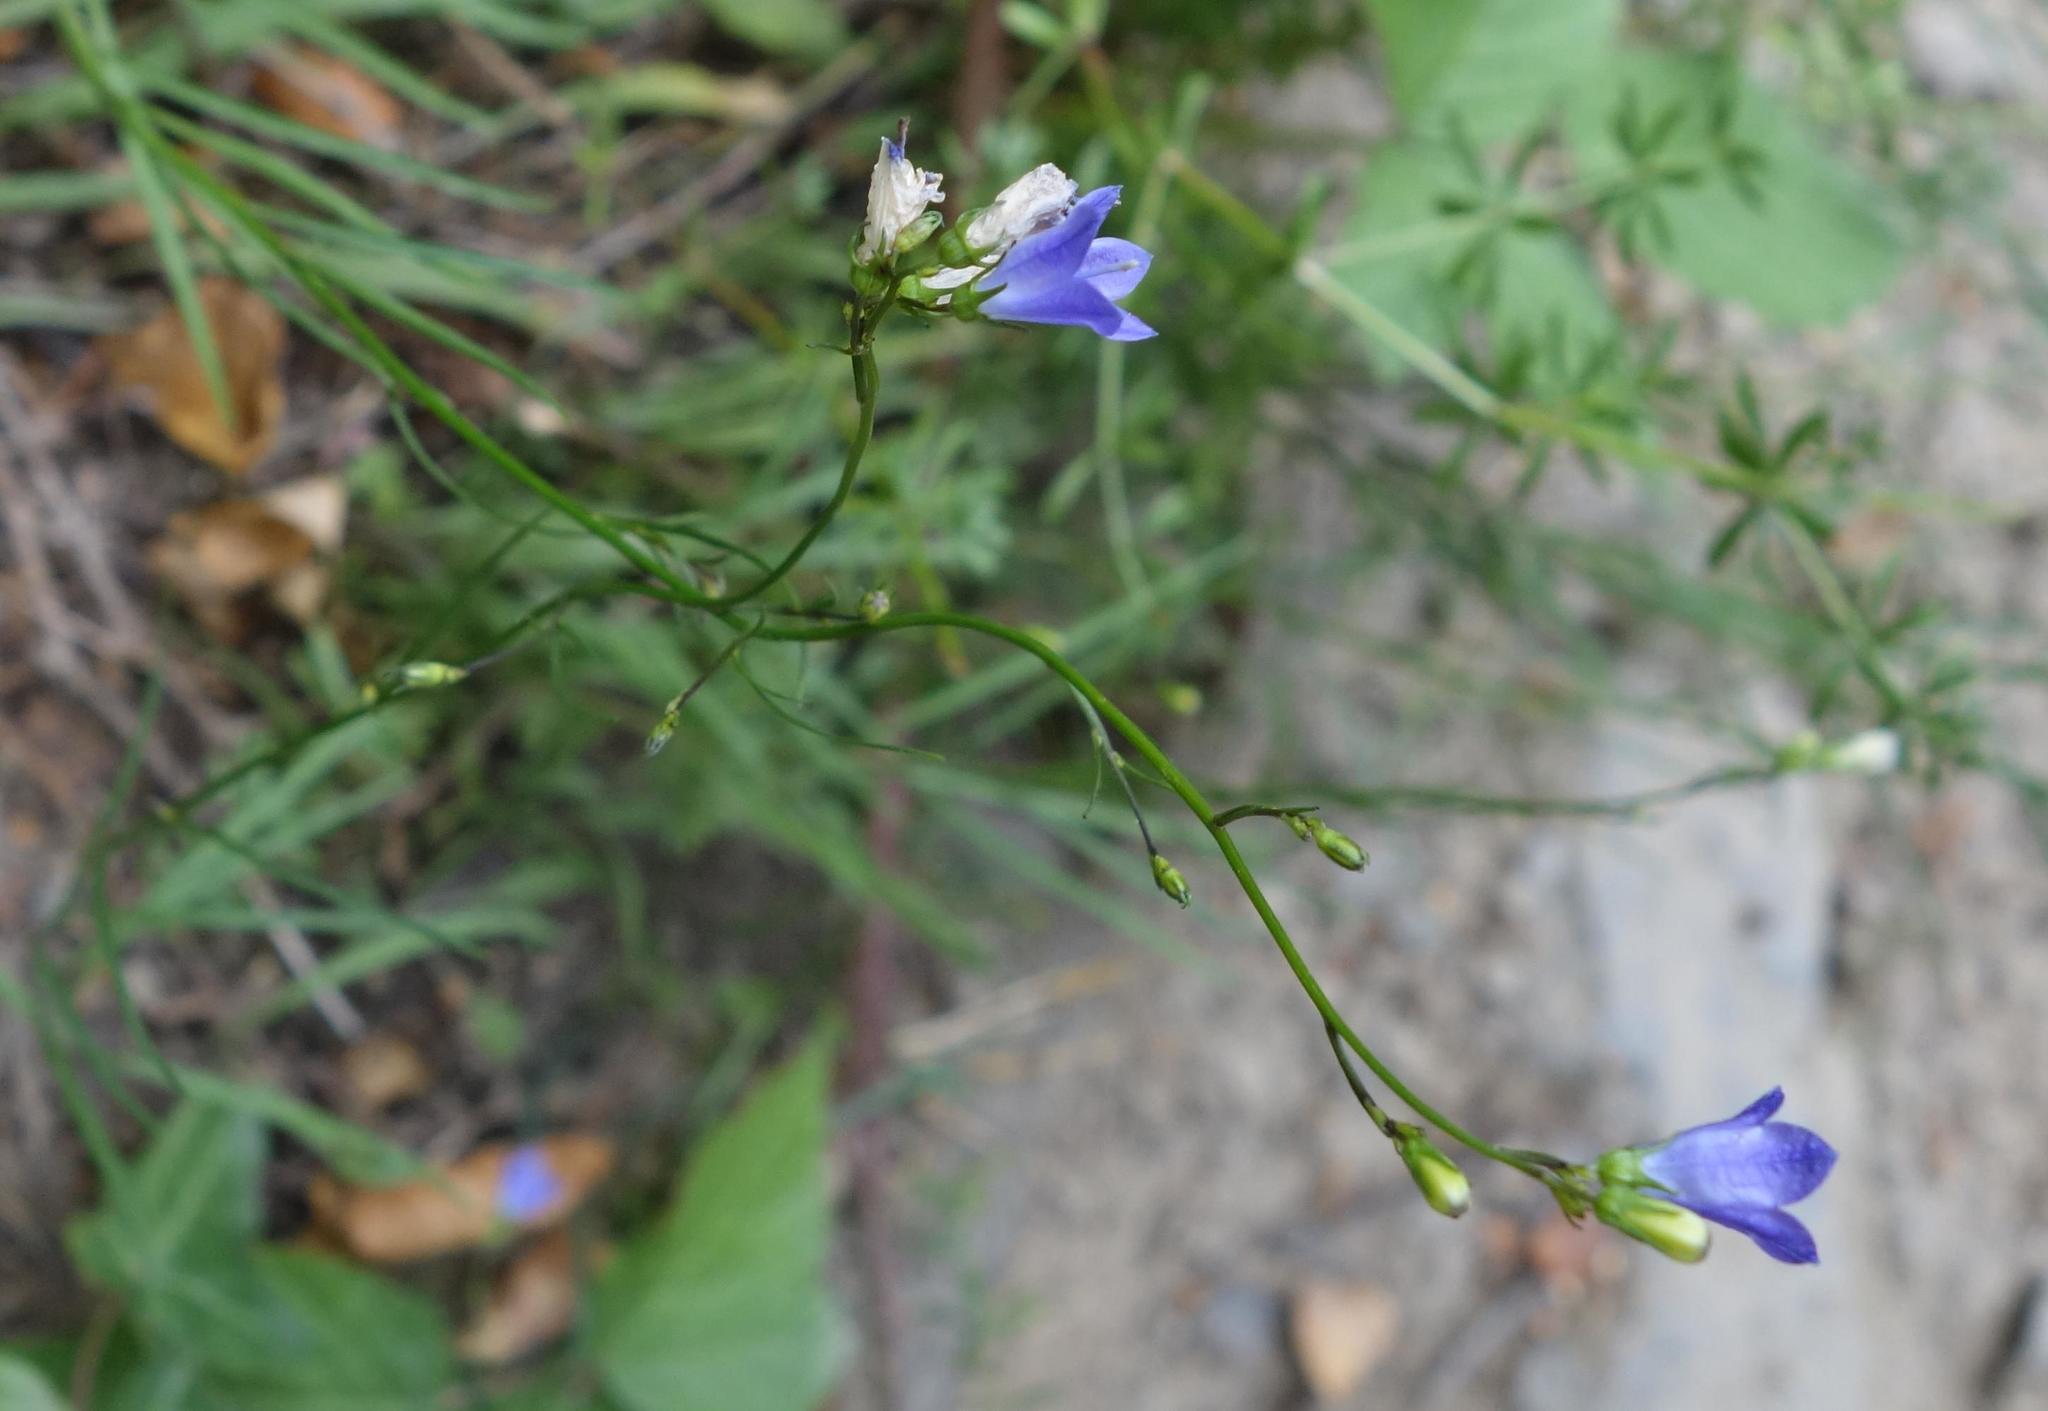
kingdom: Plantae
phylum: Tracheophyta
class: Magnoliopsida
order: Asterales
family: Campanulaceae
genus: Campanula
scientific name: Campanula rotundifolia
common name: Harebell
